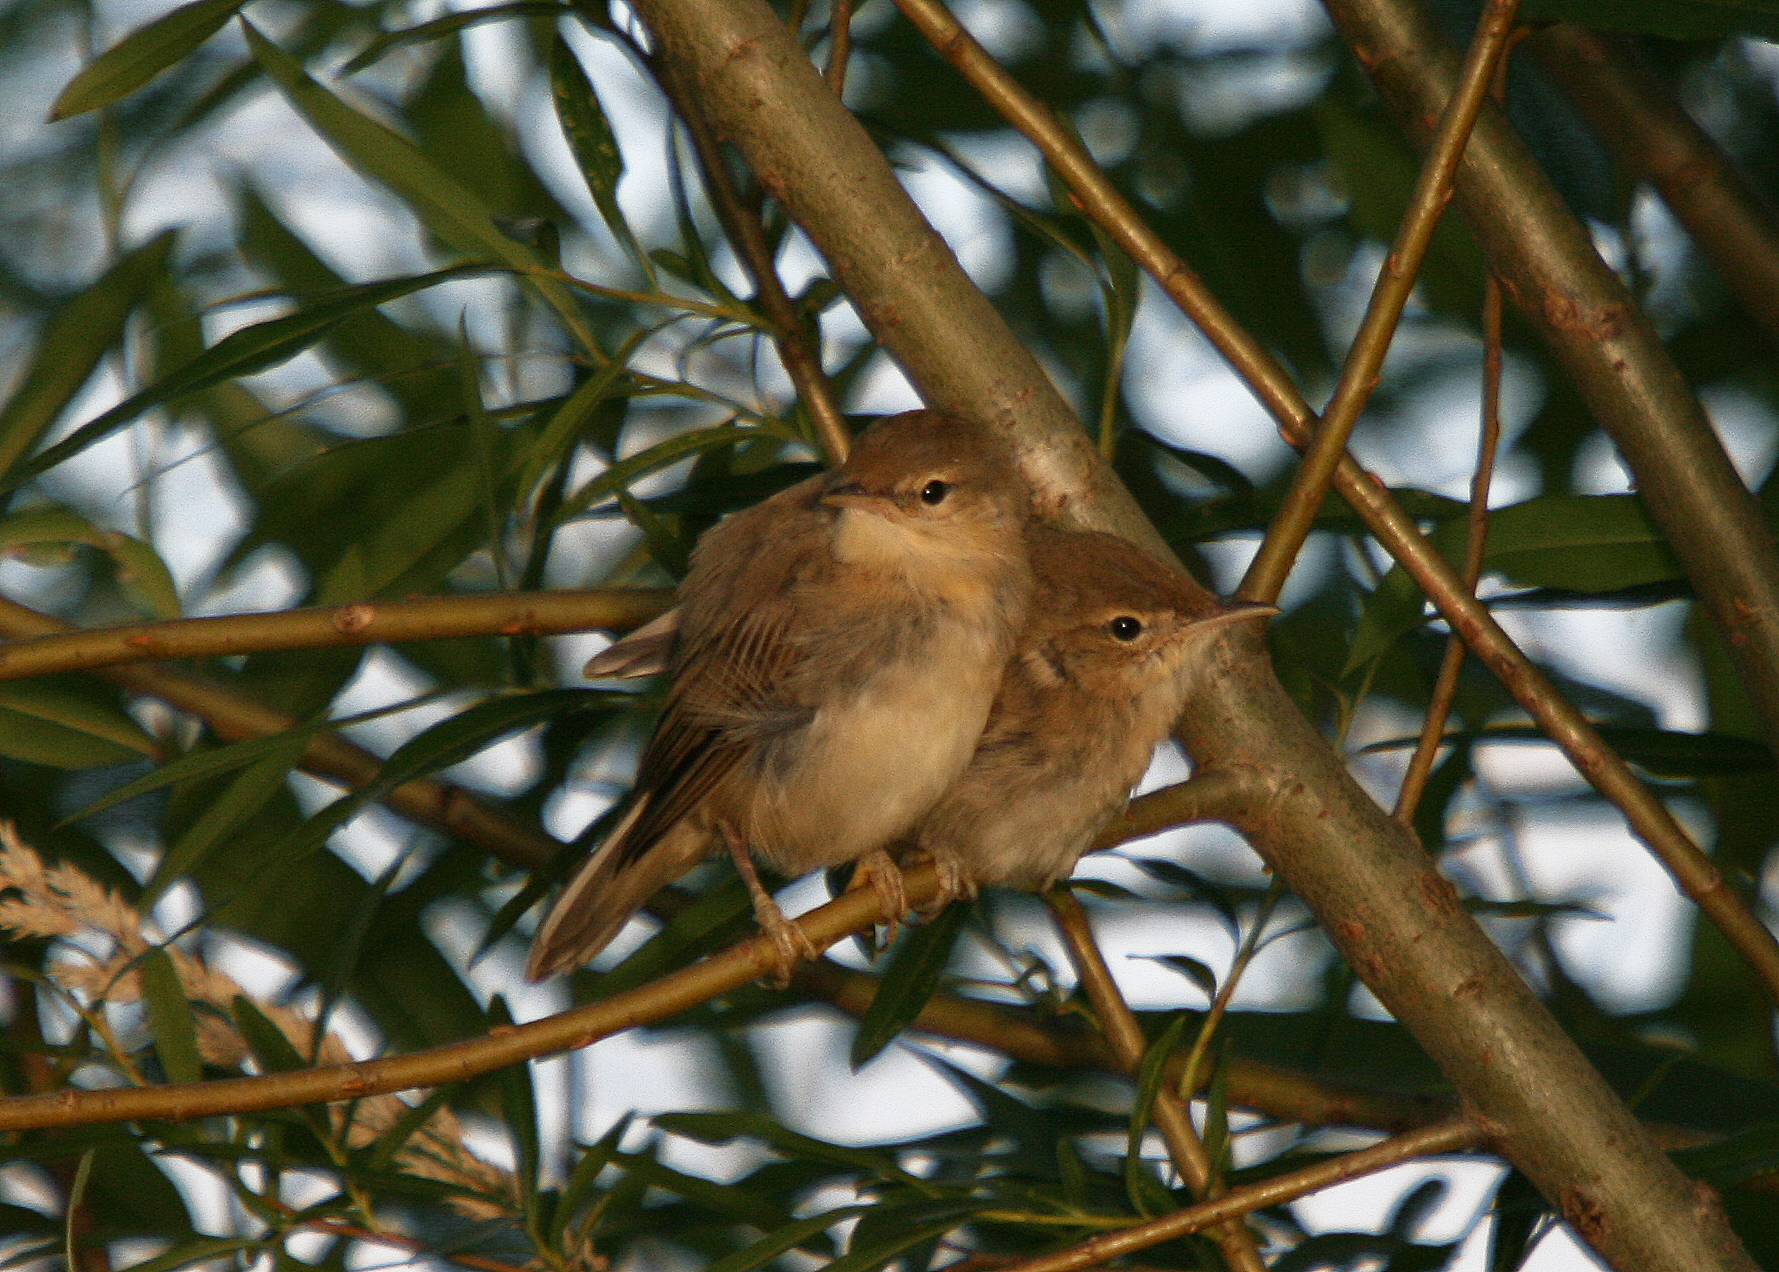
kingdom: Animalia
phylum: Chordata
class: Aves
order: Passeriformes
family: Acrocephalidae
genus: Acrocephalus
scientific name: Acrocephalus scirpaceus
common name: Eurasian reed warbler
